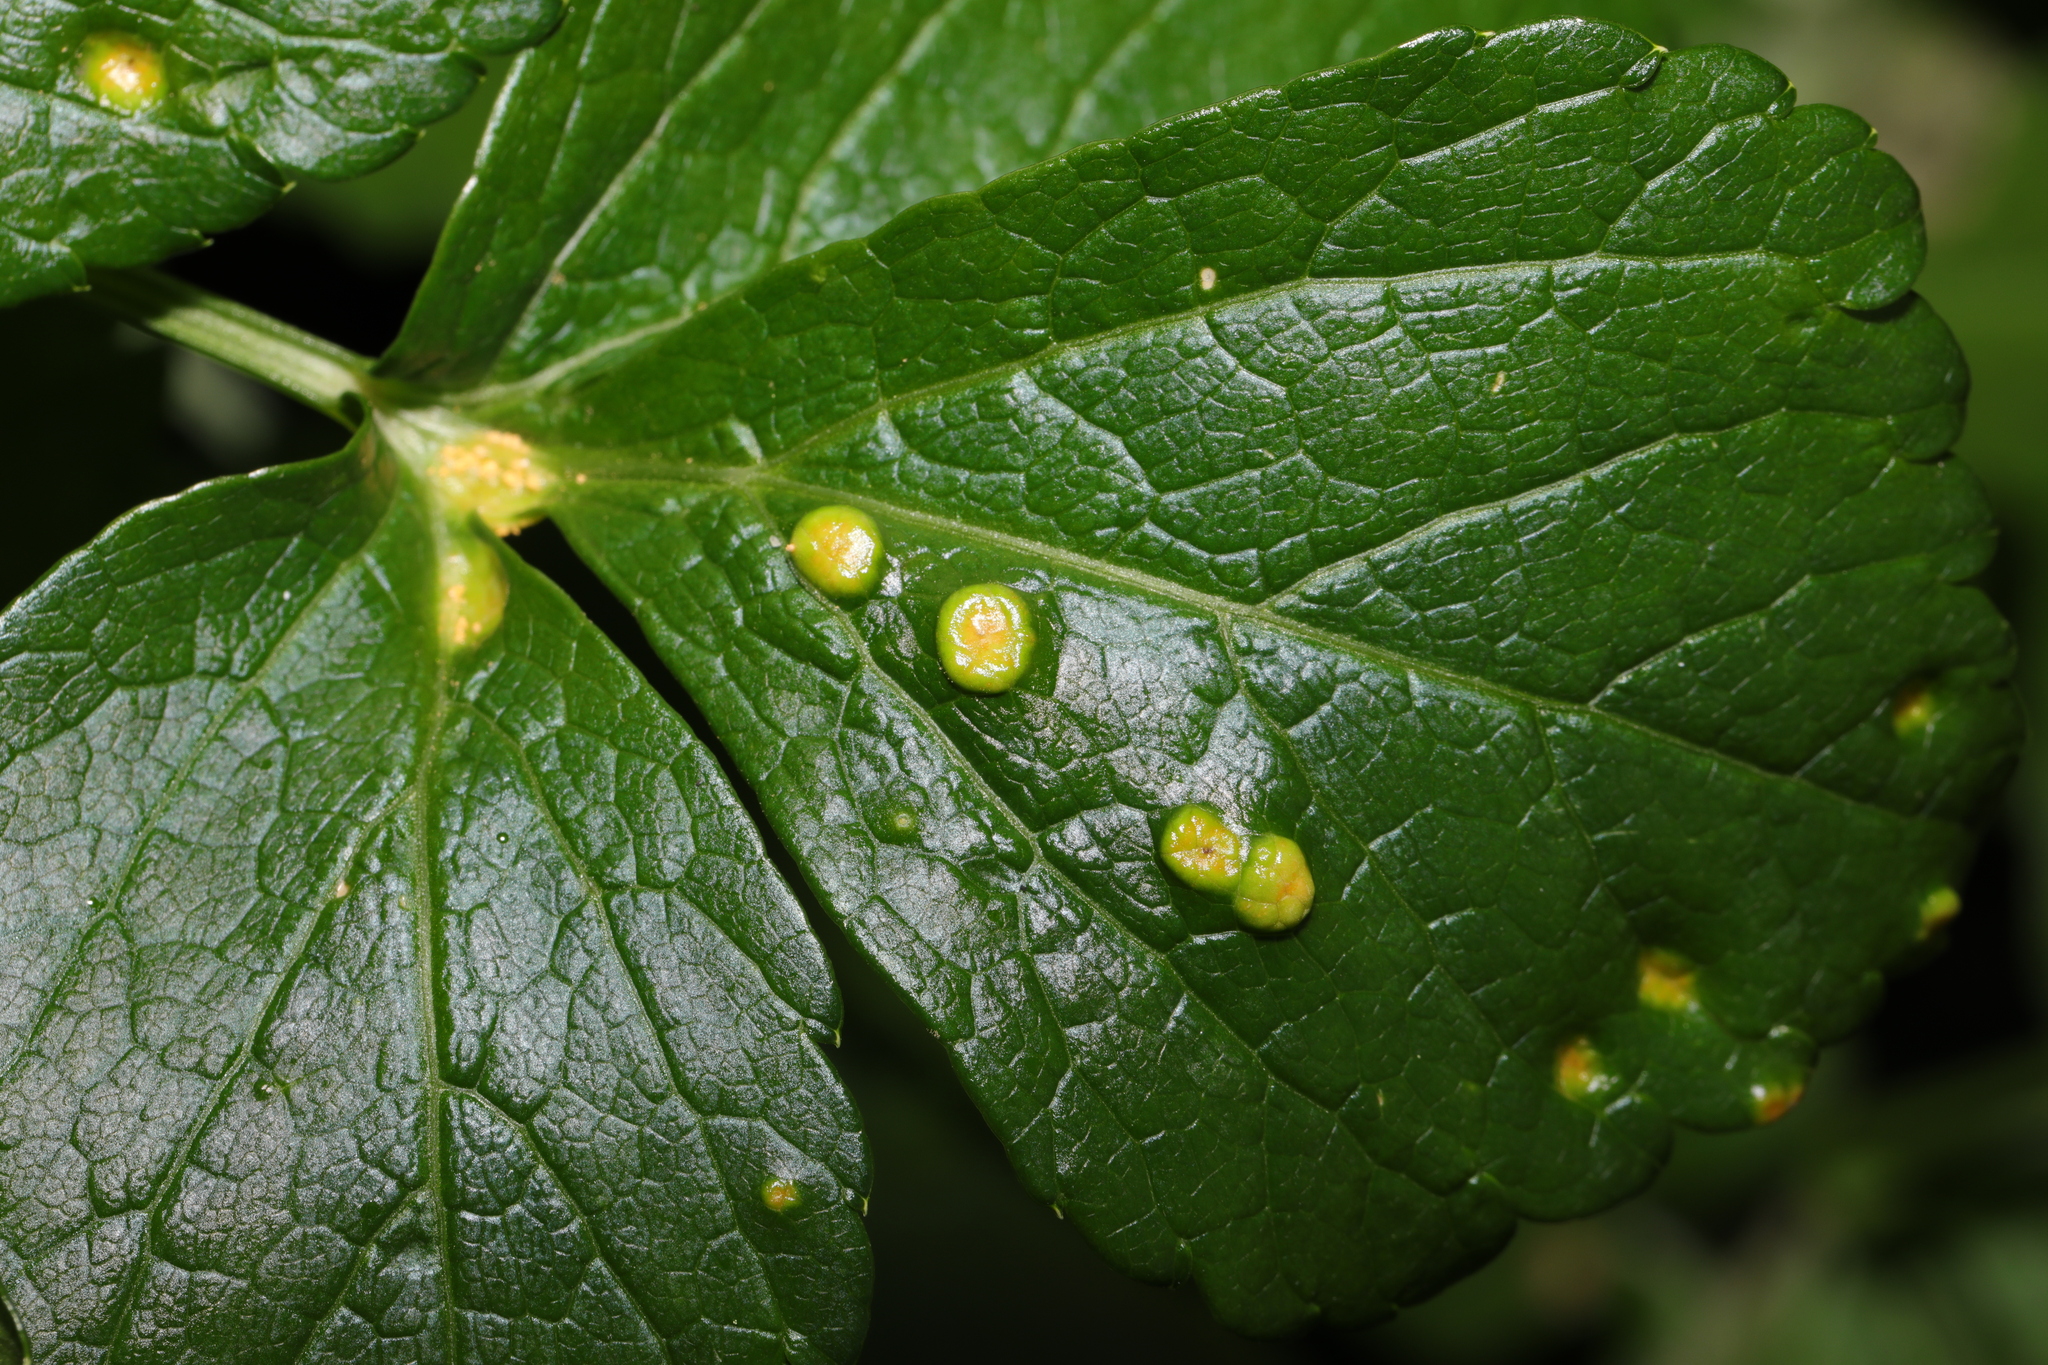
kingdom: Fungi
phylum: Basidiomycota
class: Pucciniomycetes
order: Pucciniales
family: Pucciniaceae
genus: Puccinia
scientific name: Puccinia smyrnii
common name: Alexanders rust
